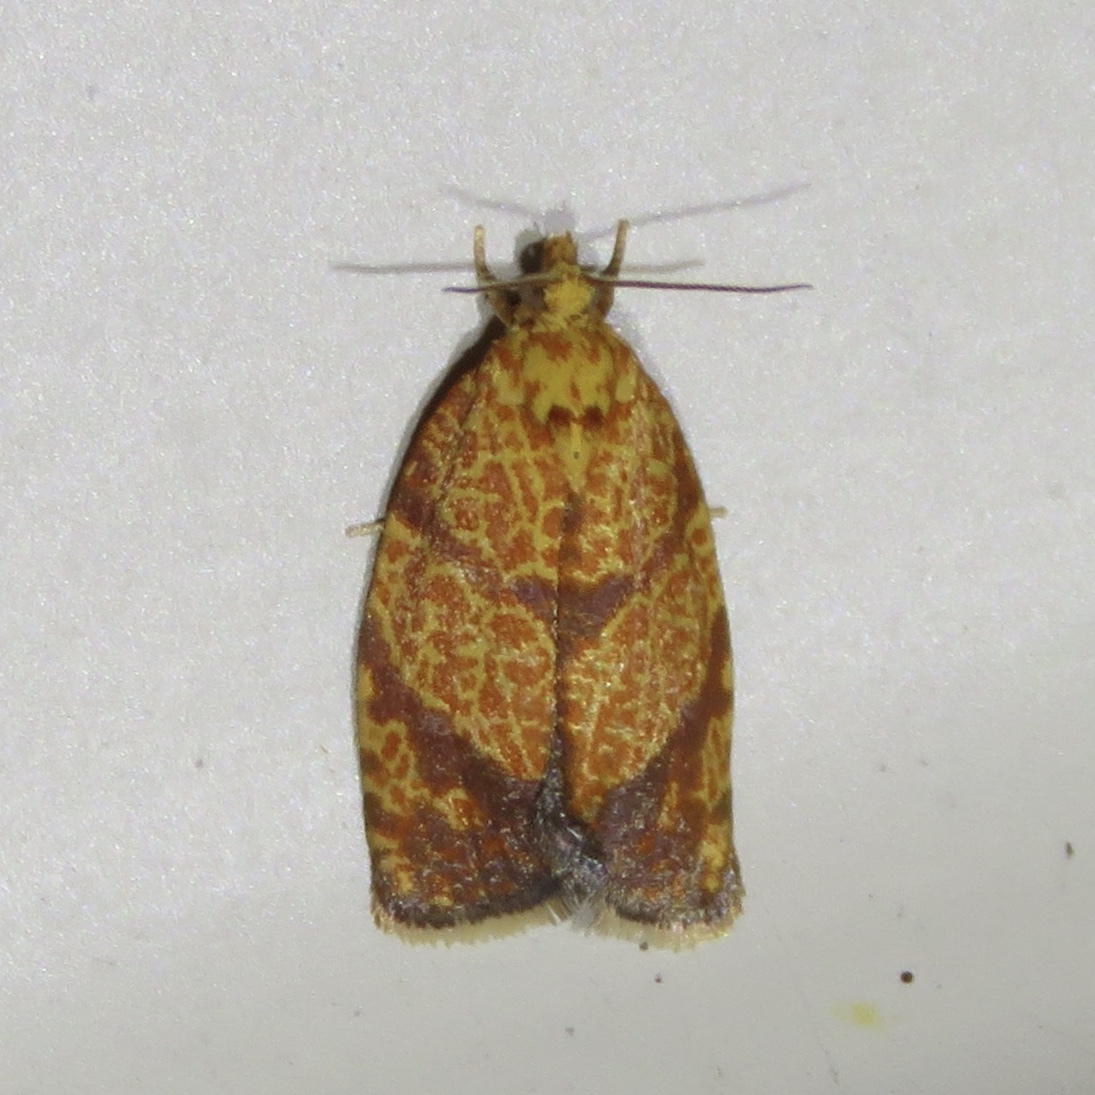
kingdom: Animalia
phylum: Arthropoda
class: Insecta
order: Lepidoptera
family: Tortricidae
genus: Argyrotaenia
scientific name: Argyrotaenia quadrifasciana
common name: Four-lined leafroller moth
